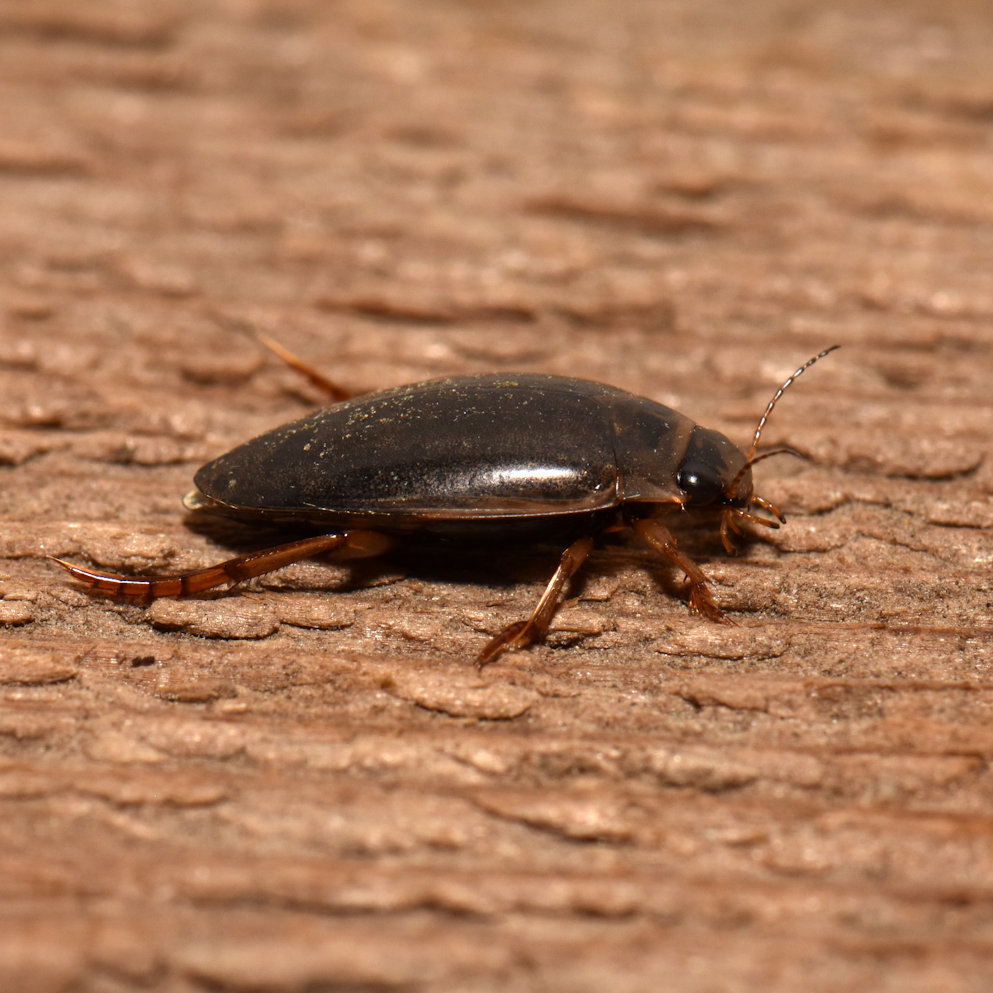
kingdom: Animalia
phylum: Arthropoda
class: Insecta
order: Coleoptera
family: Dytiscidae
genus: Rhantus
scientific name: Rhantus binotatus
